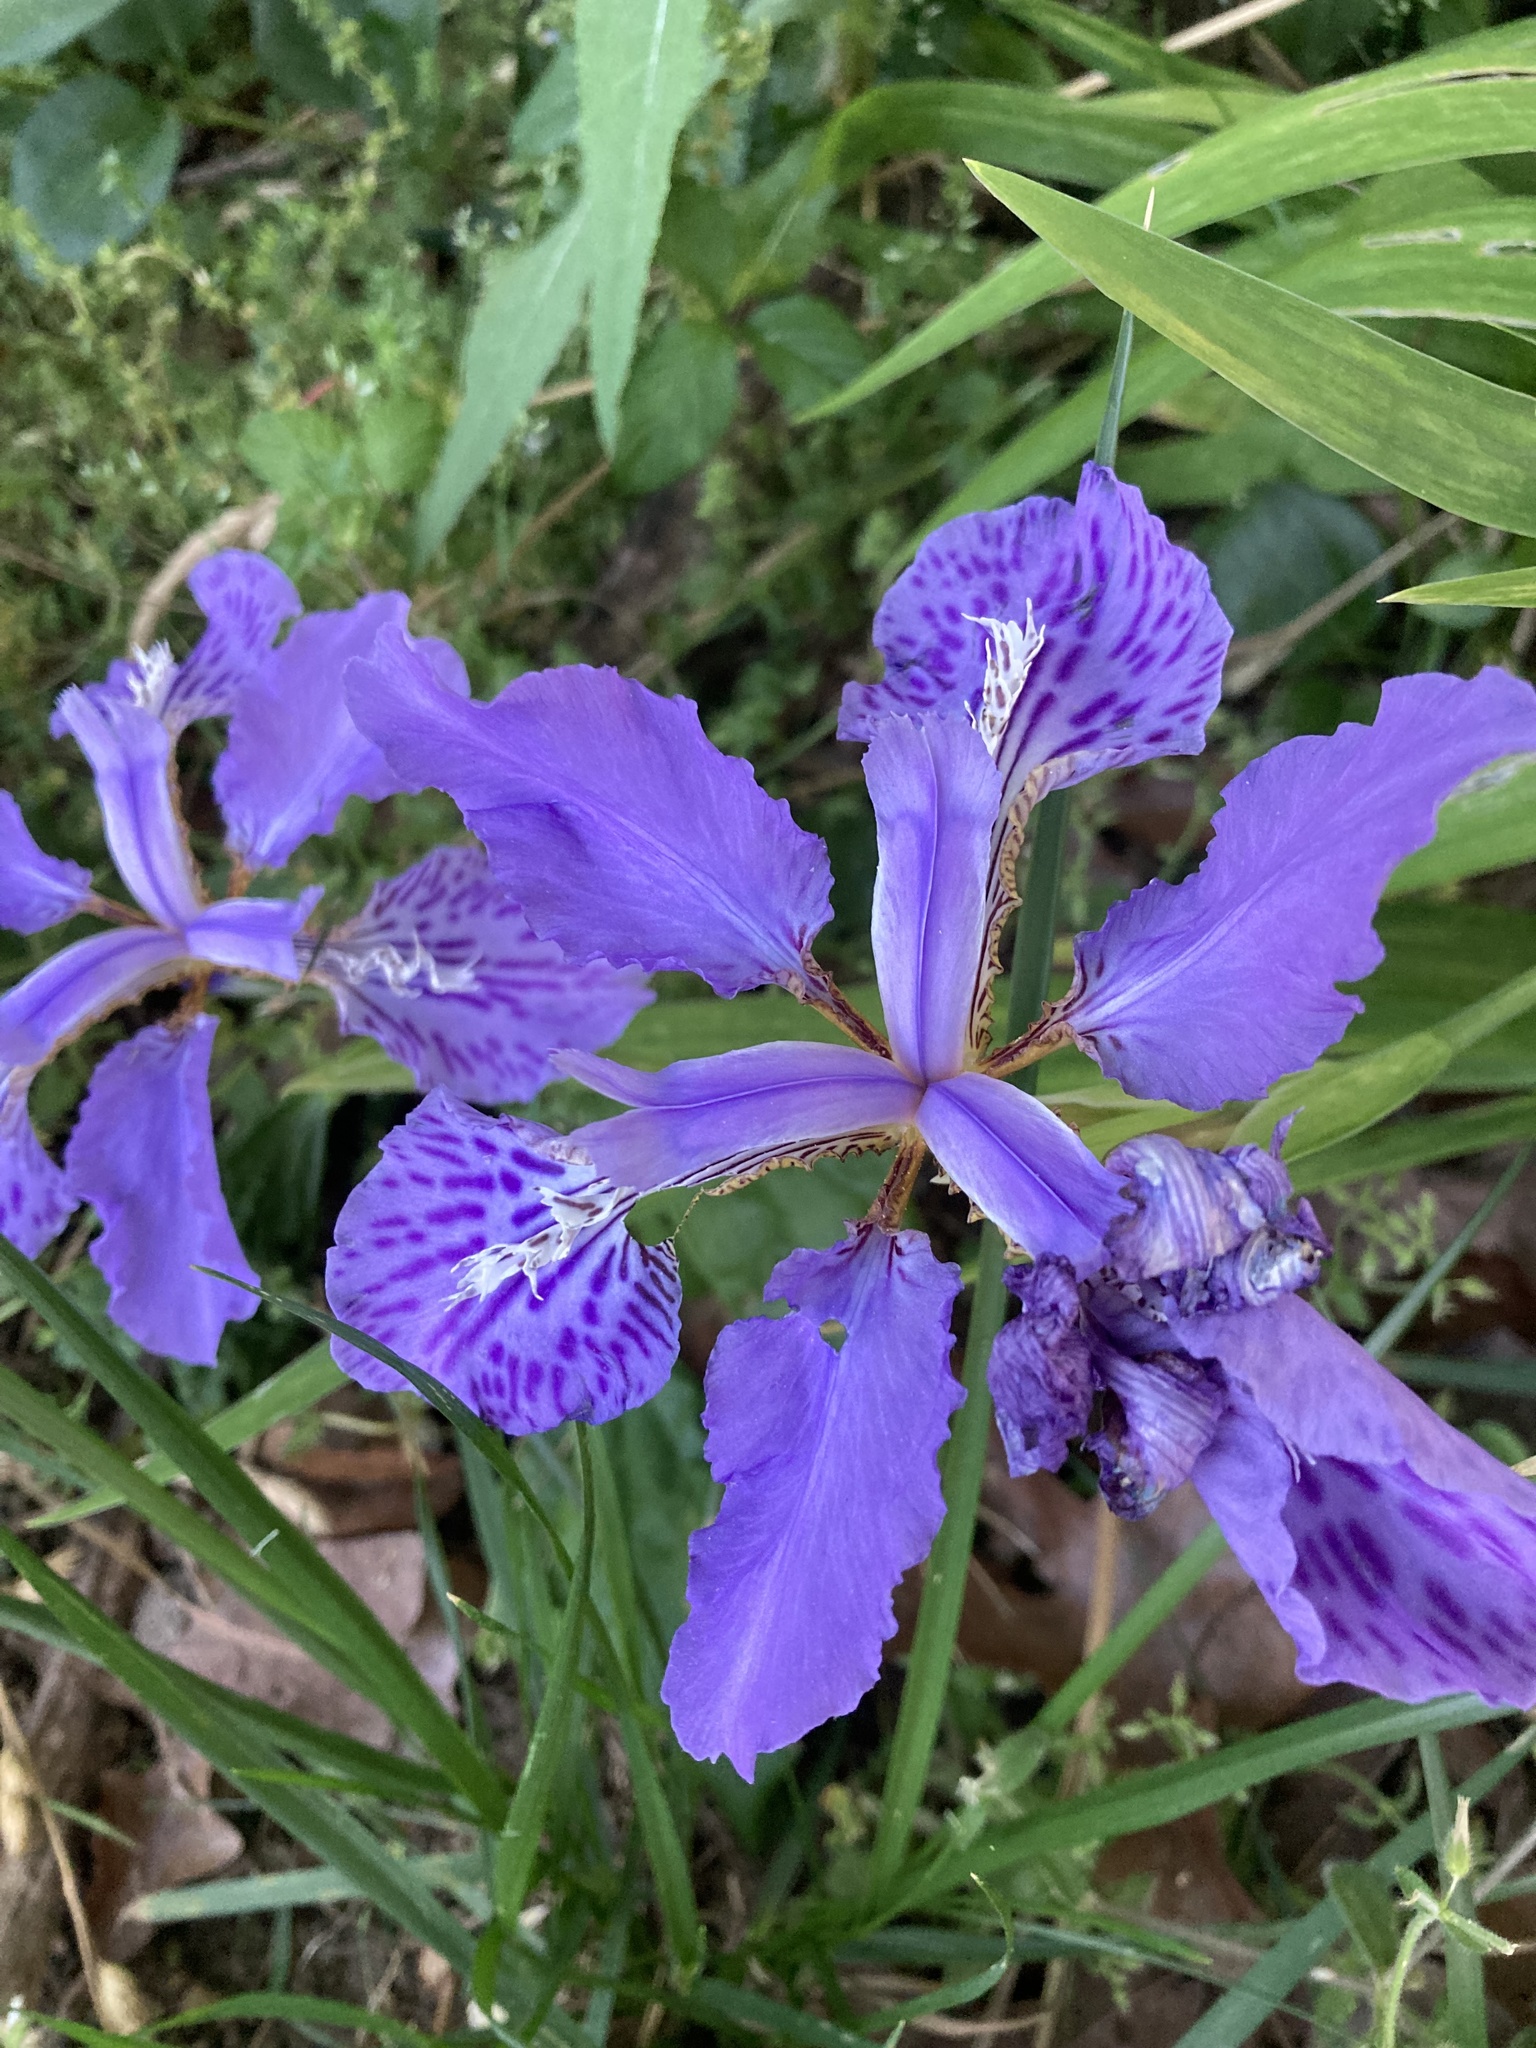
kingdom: Plantae
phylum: Tracheophyta
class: Liliopsida
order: Asparagales
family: Iridaceae
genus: Iris
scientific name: Iris tectorum
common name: Wall iris
